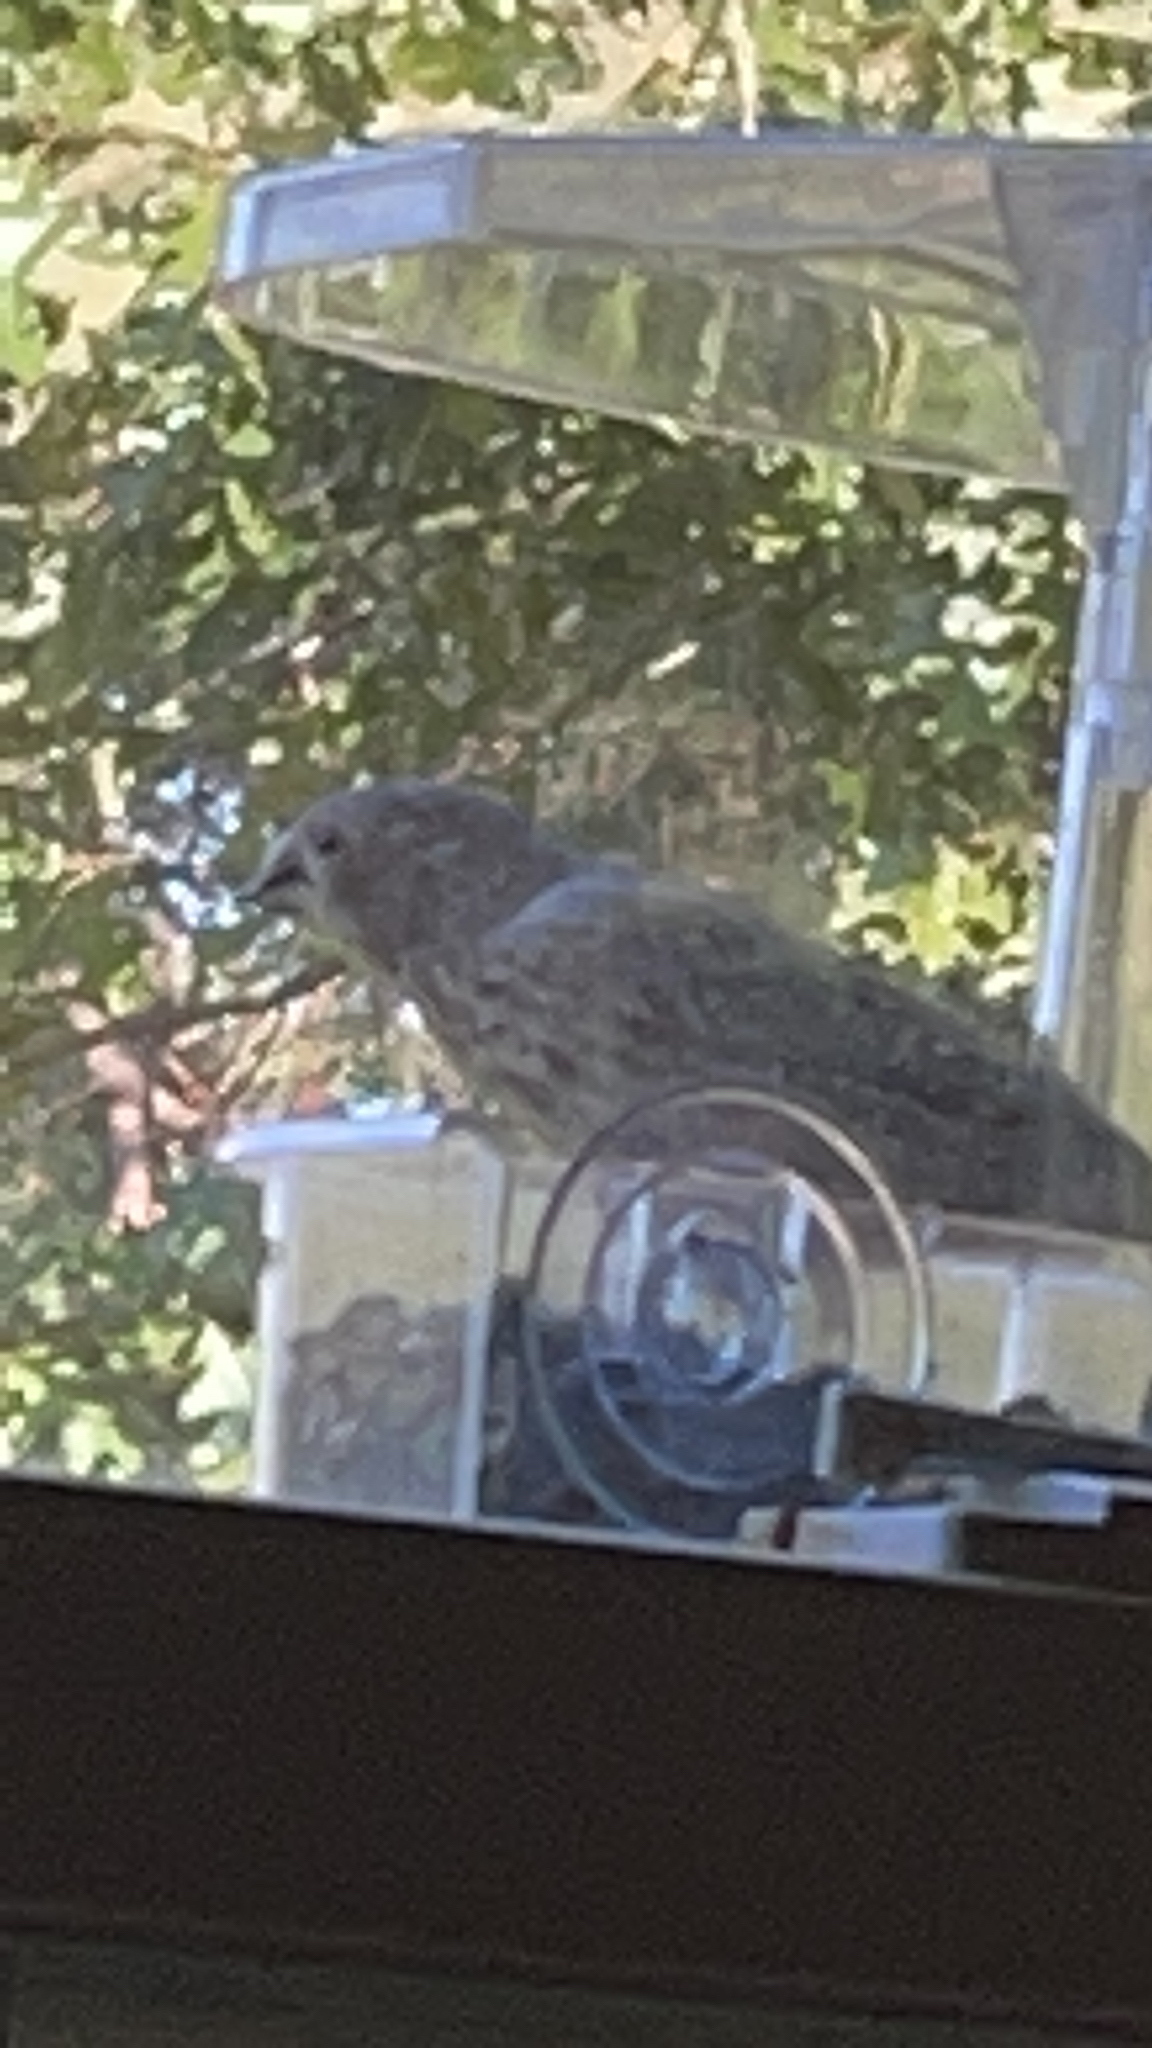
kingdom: Animalia
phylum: Chordata
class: Aves
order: Passeriformes
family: Fringillidae
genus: Haemorhous
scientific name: Haemorhous mexicanus
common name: House finch
